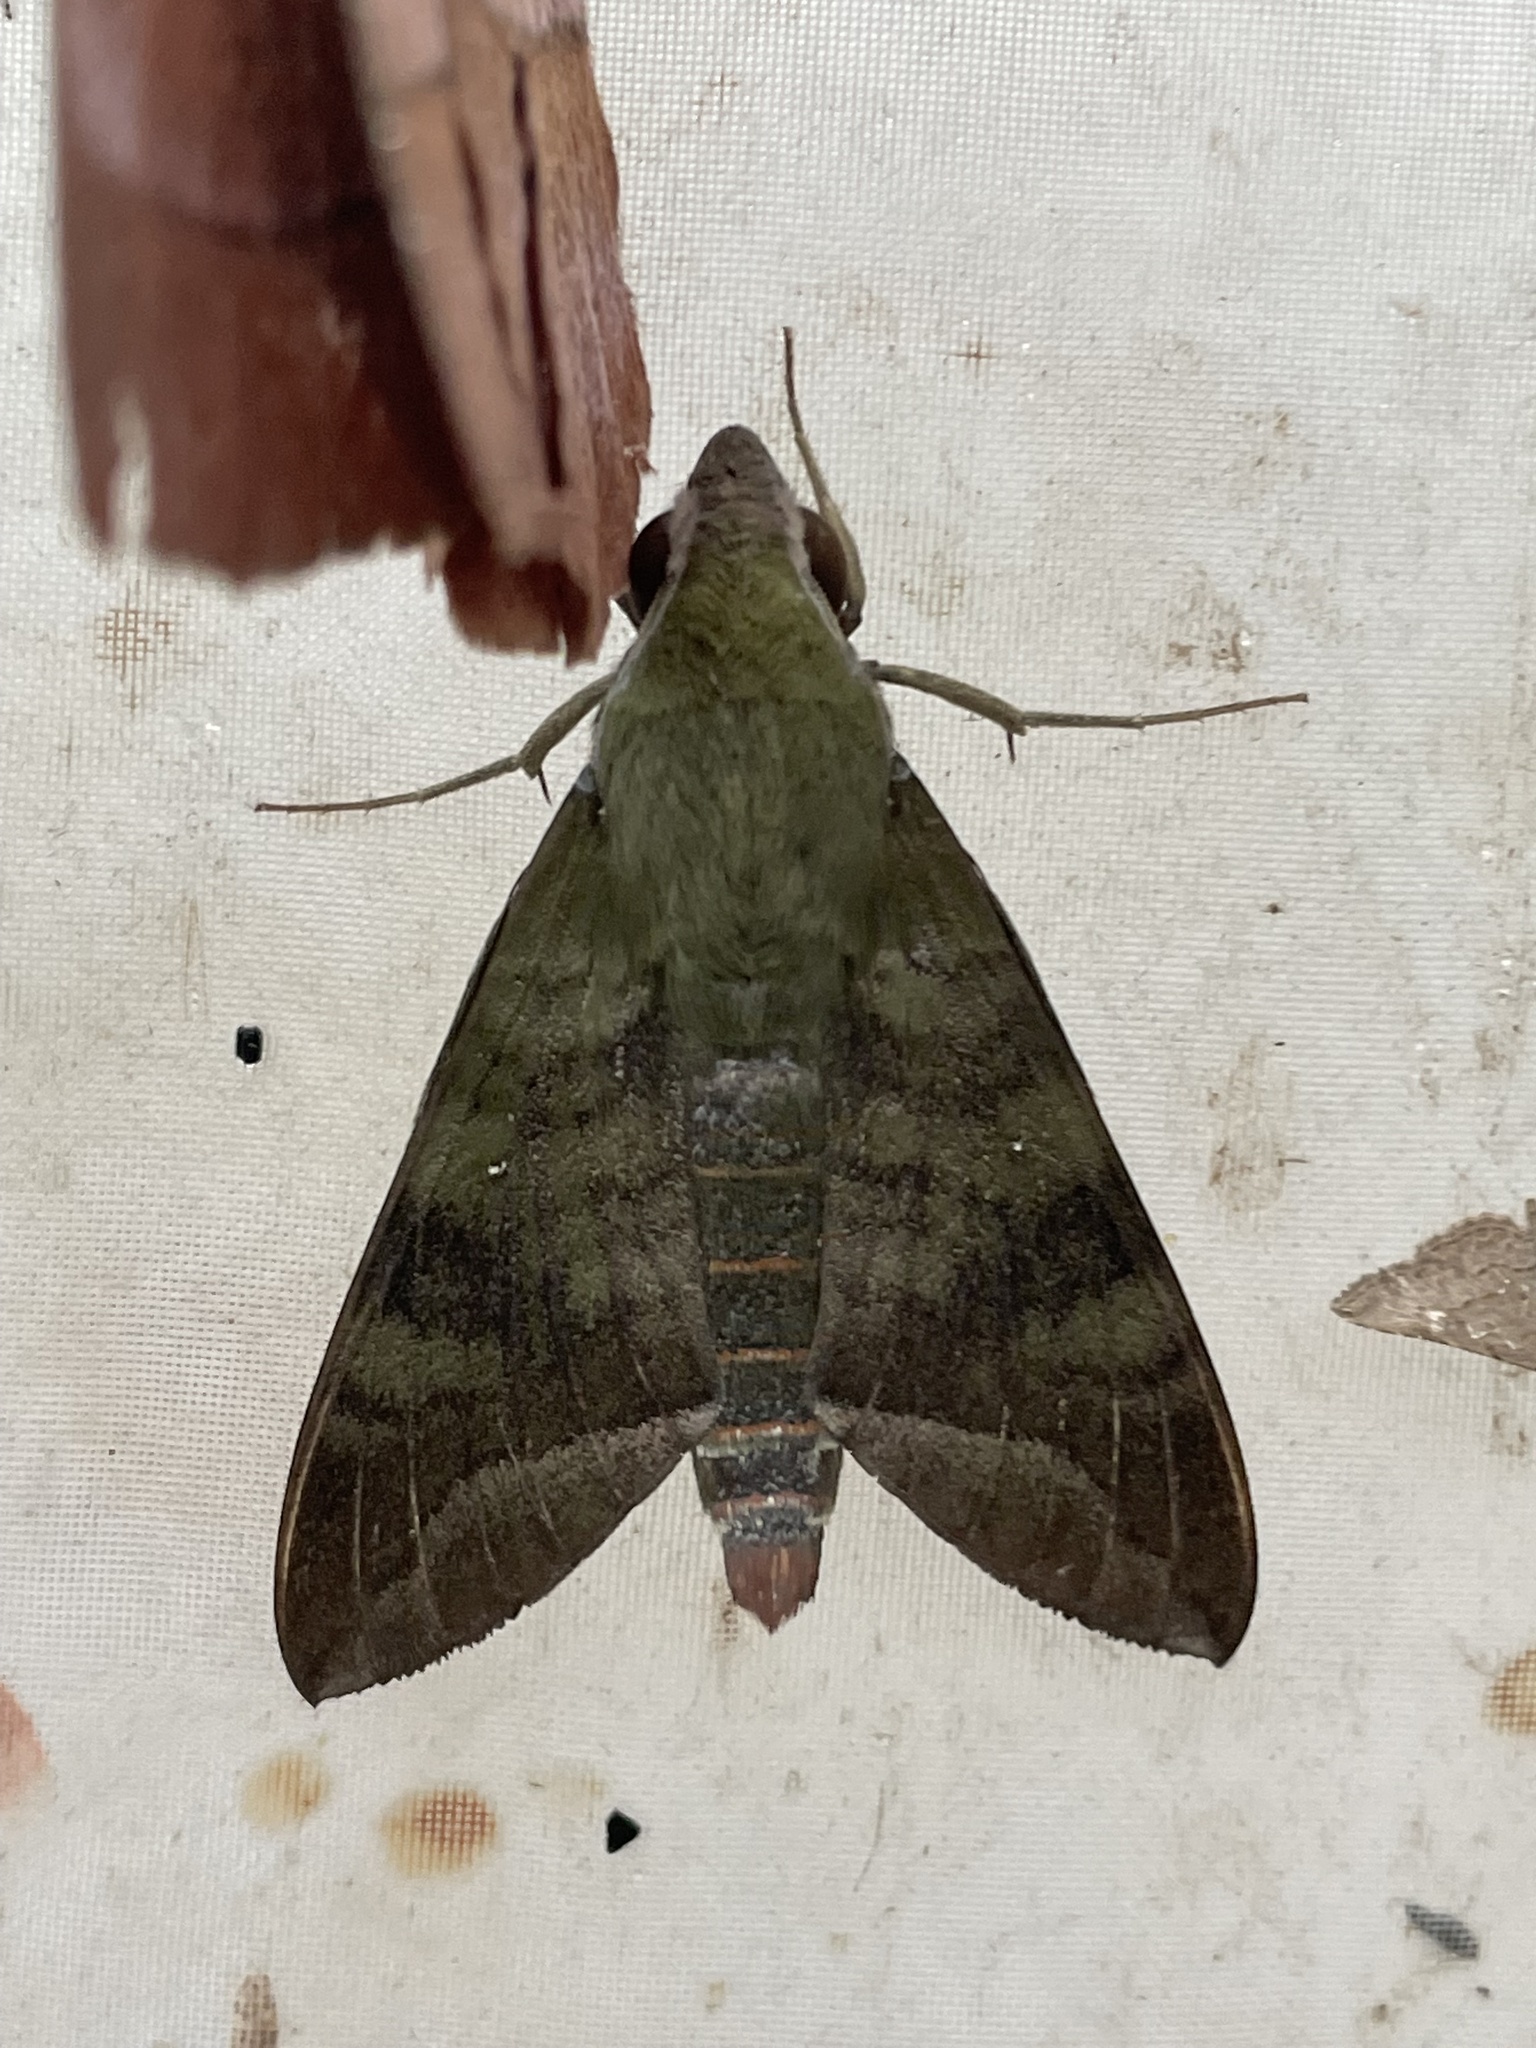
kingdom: Animalia
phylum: Arthropoda
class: Insecta
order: Lepidoptera
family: Sphingidae
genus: Nephele
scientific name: Nephele comma
